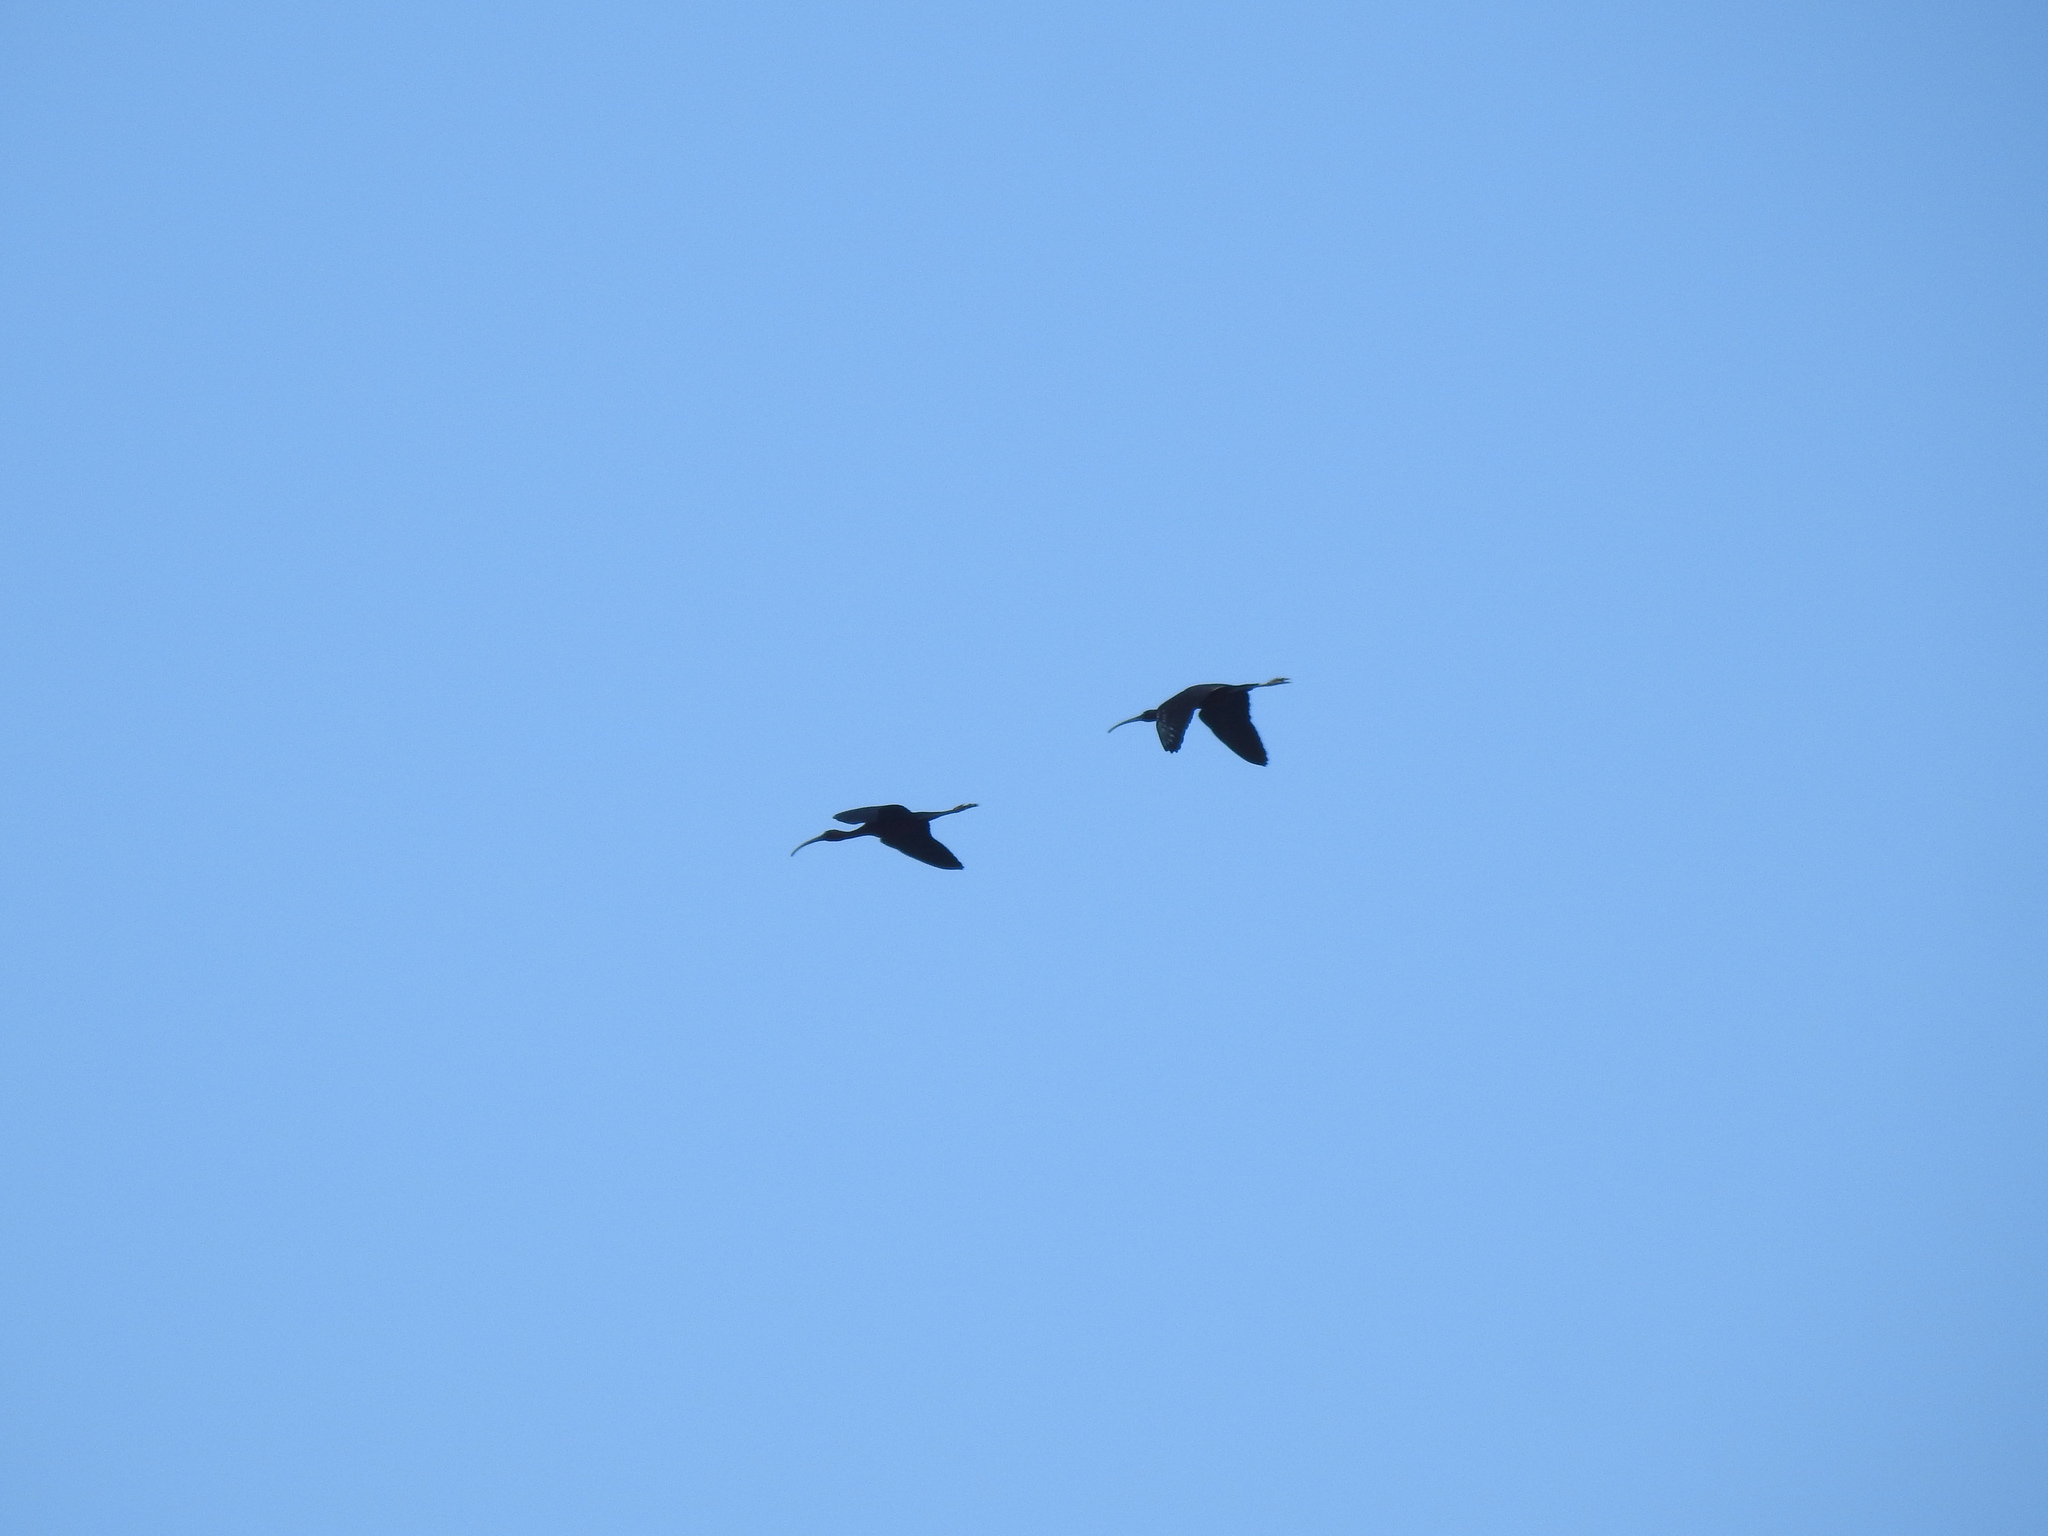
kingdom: Animalia
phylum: Chordata
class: Aves
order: Pelecaniformes
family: Threskiornithidae
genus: Plegadis
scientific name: Plegadis falcinellus
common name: Glossy ibis
